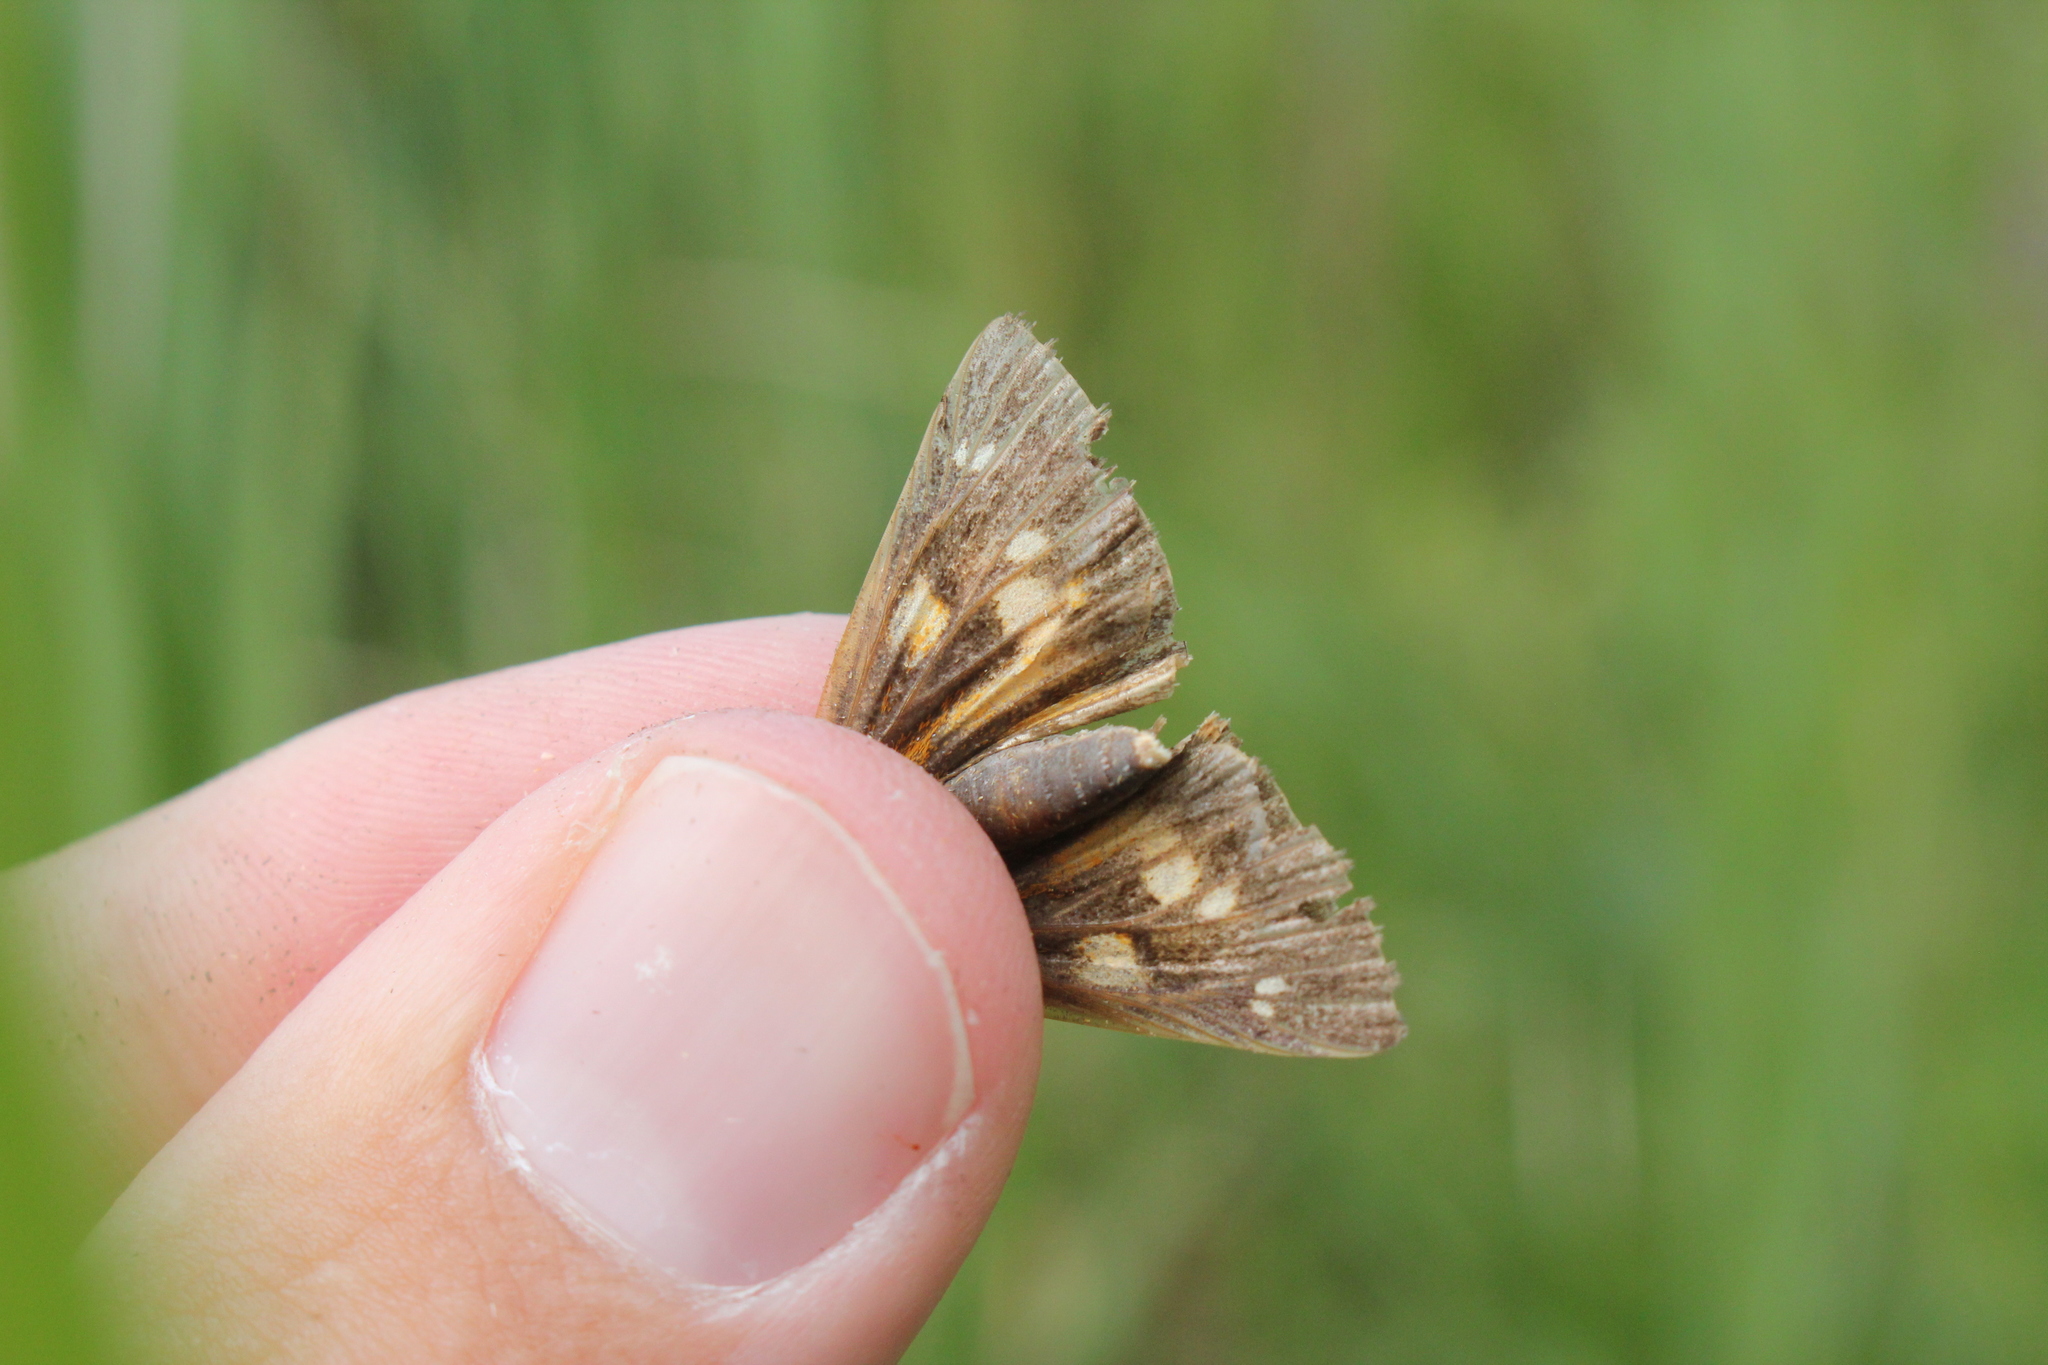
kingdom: Animalia
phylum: Arthropoda
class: Insecta
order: Lepidoptera
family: Hesperiidae
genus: Poanes
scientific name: Poanes viator
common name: Broad-winged skipper
